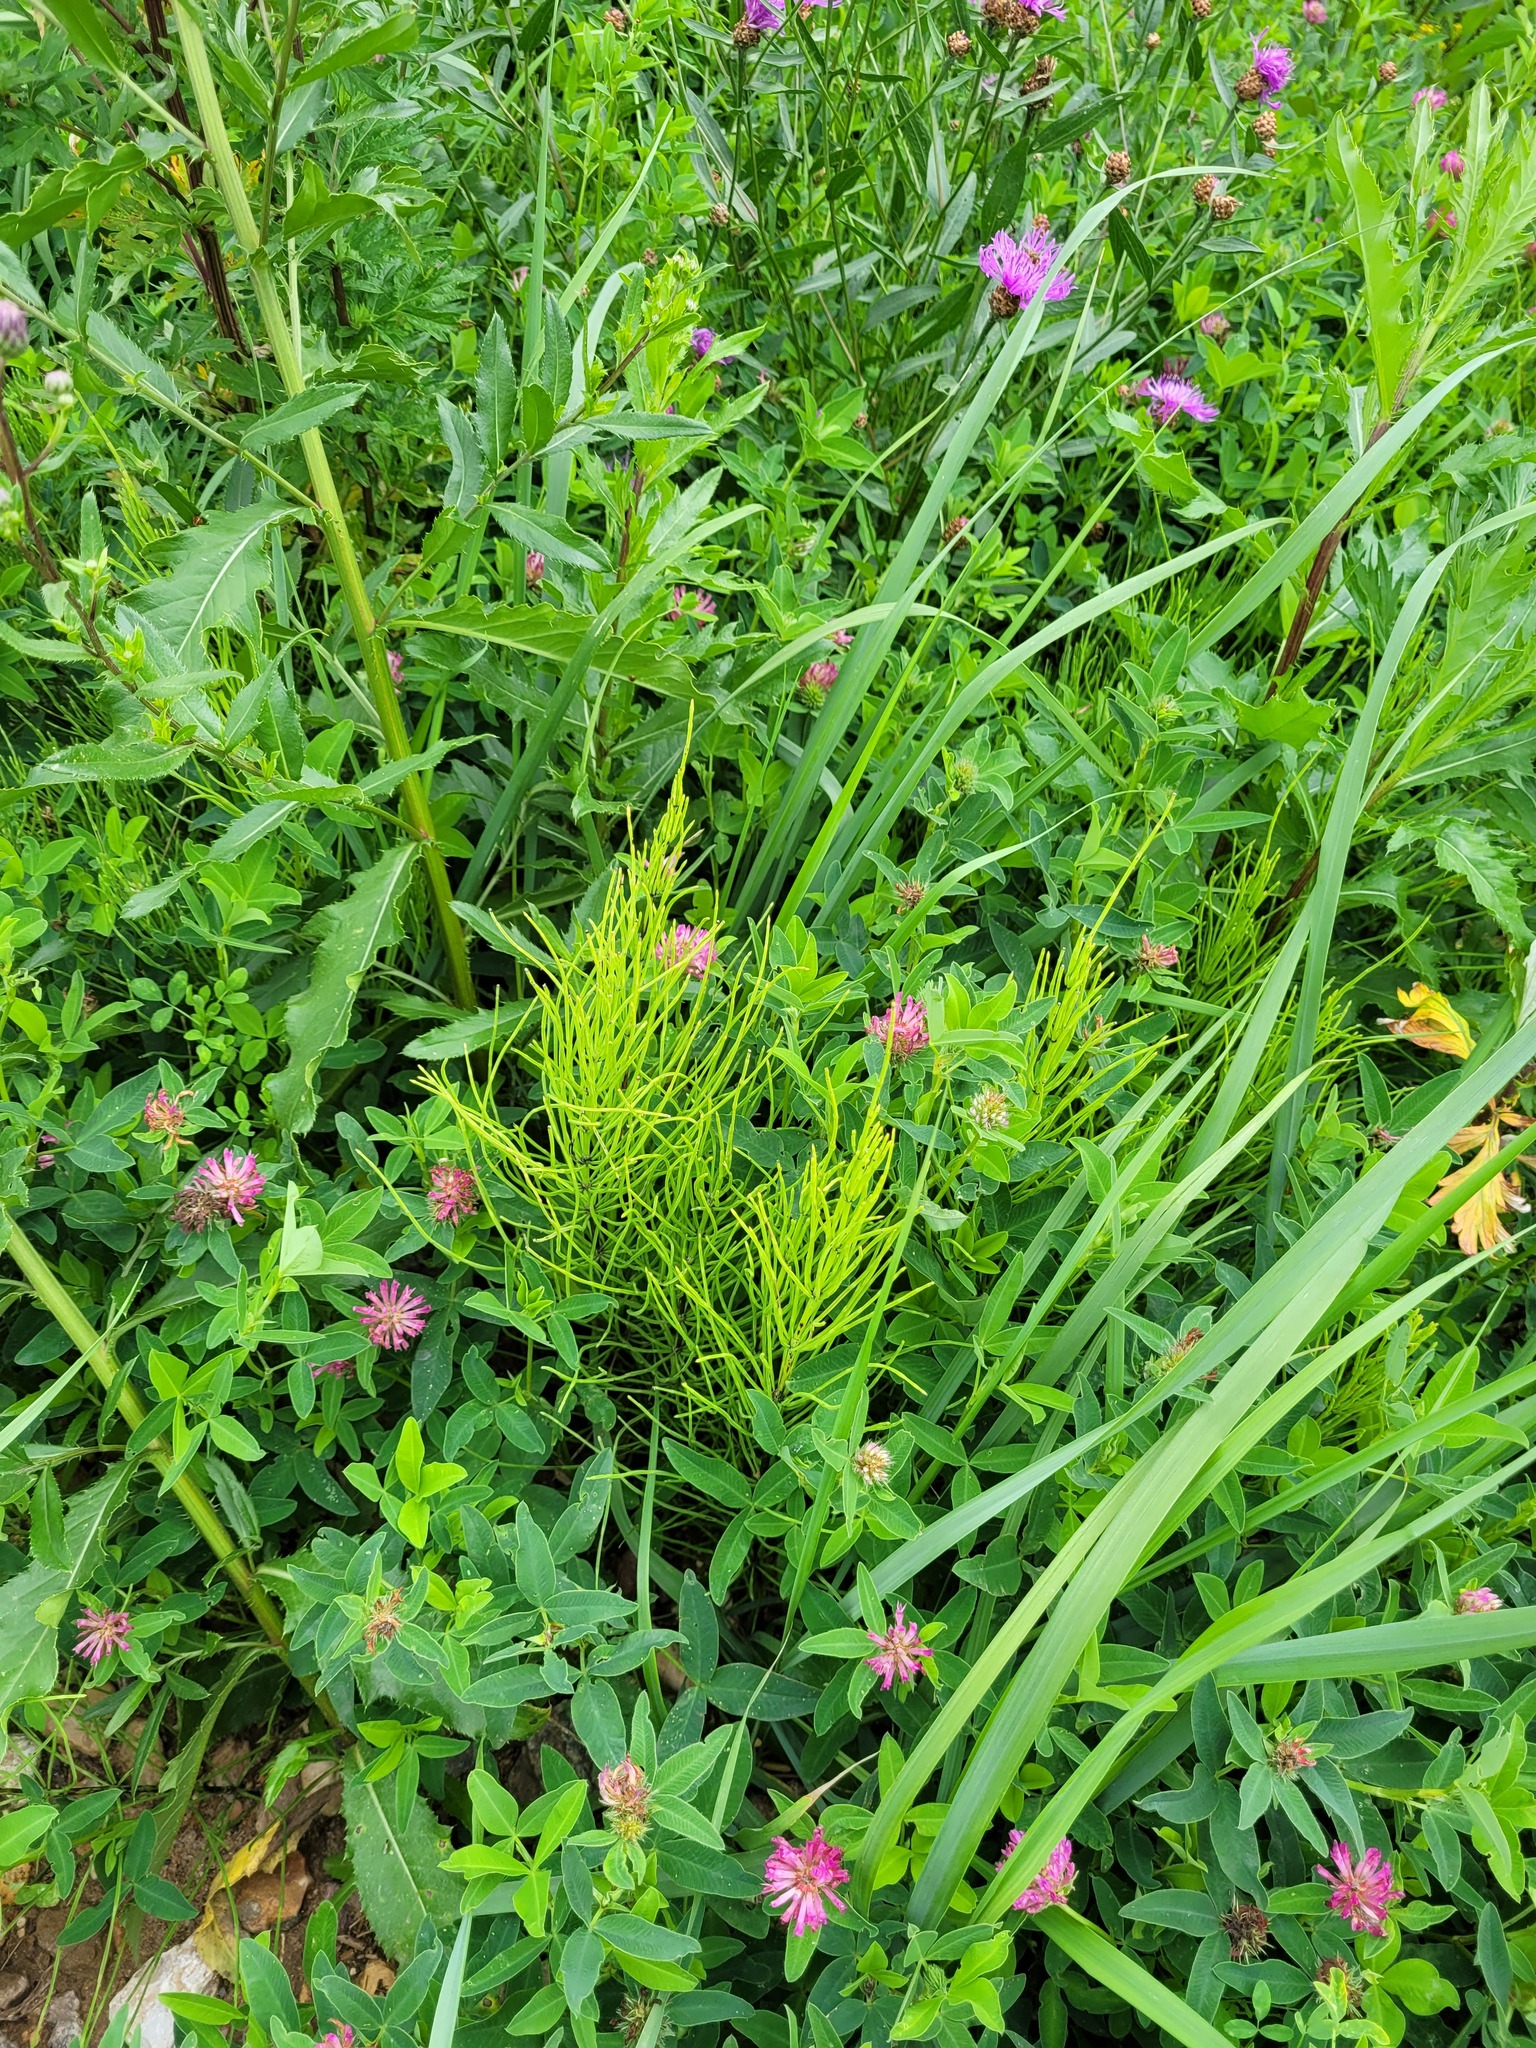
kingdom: Plantae
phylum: Tracheophyta
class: Polypodiopsida
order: Equisetales
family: Equisetaceae
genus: Equisetum
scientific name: Equisetum arvense
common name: Field horsetail
